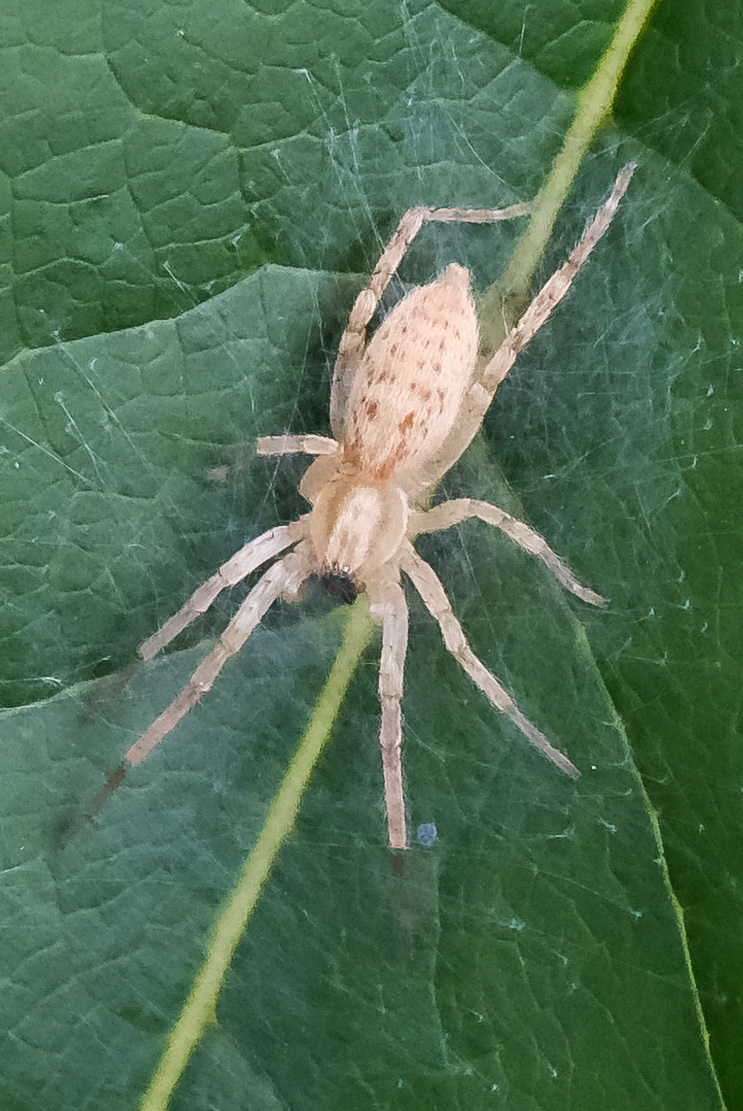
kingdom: Animalia
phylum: Arthropoda
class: Arachnida
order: Araneae
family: Anyphaenidae
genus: Hibana
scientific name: Hibana gracilis
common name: Garden ghost spider
